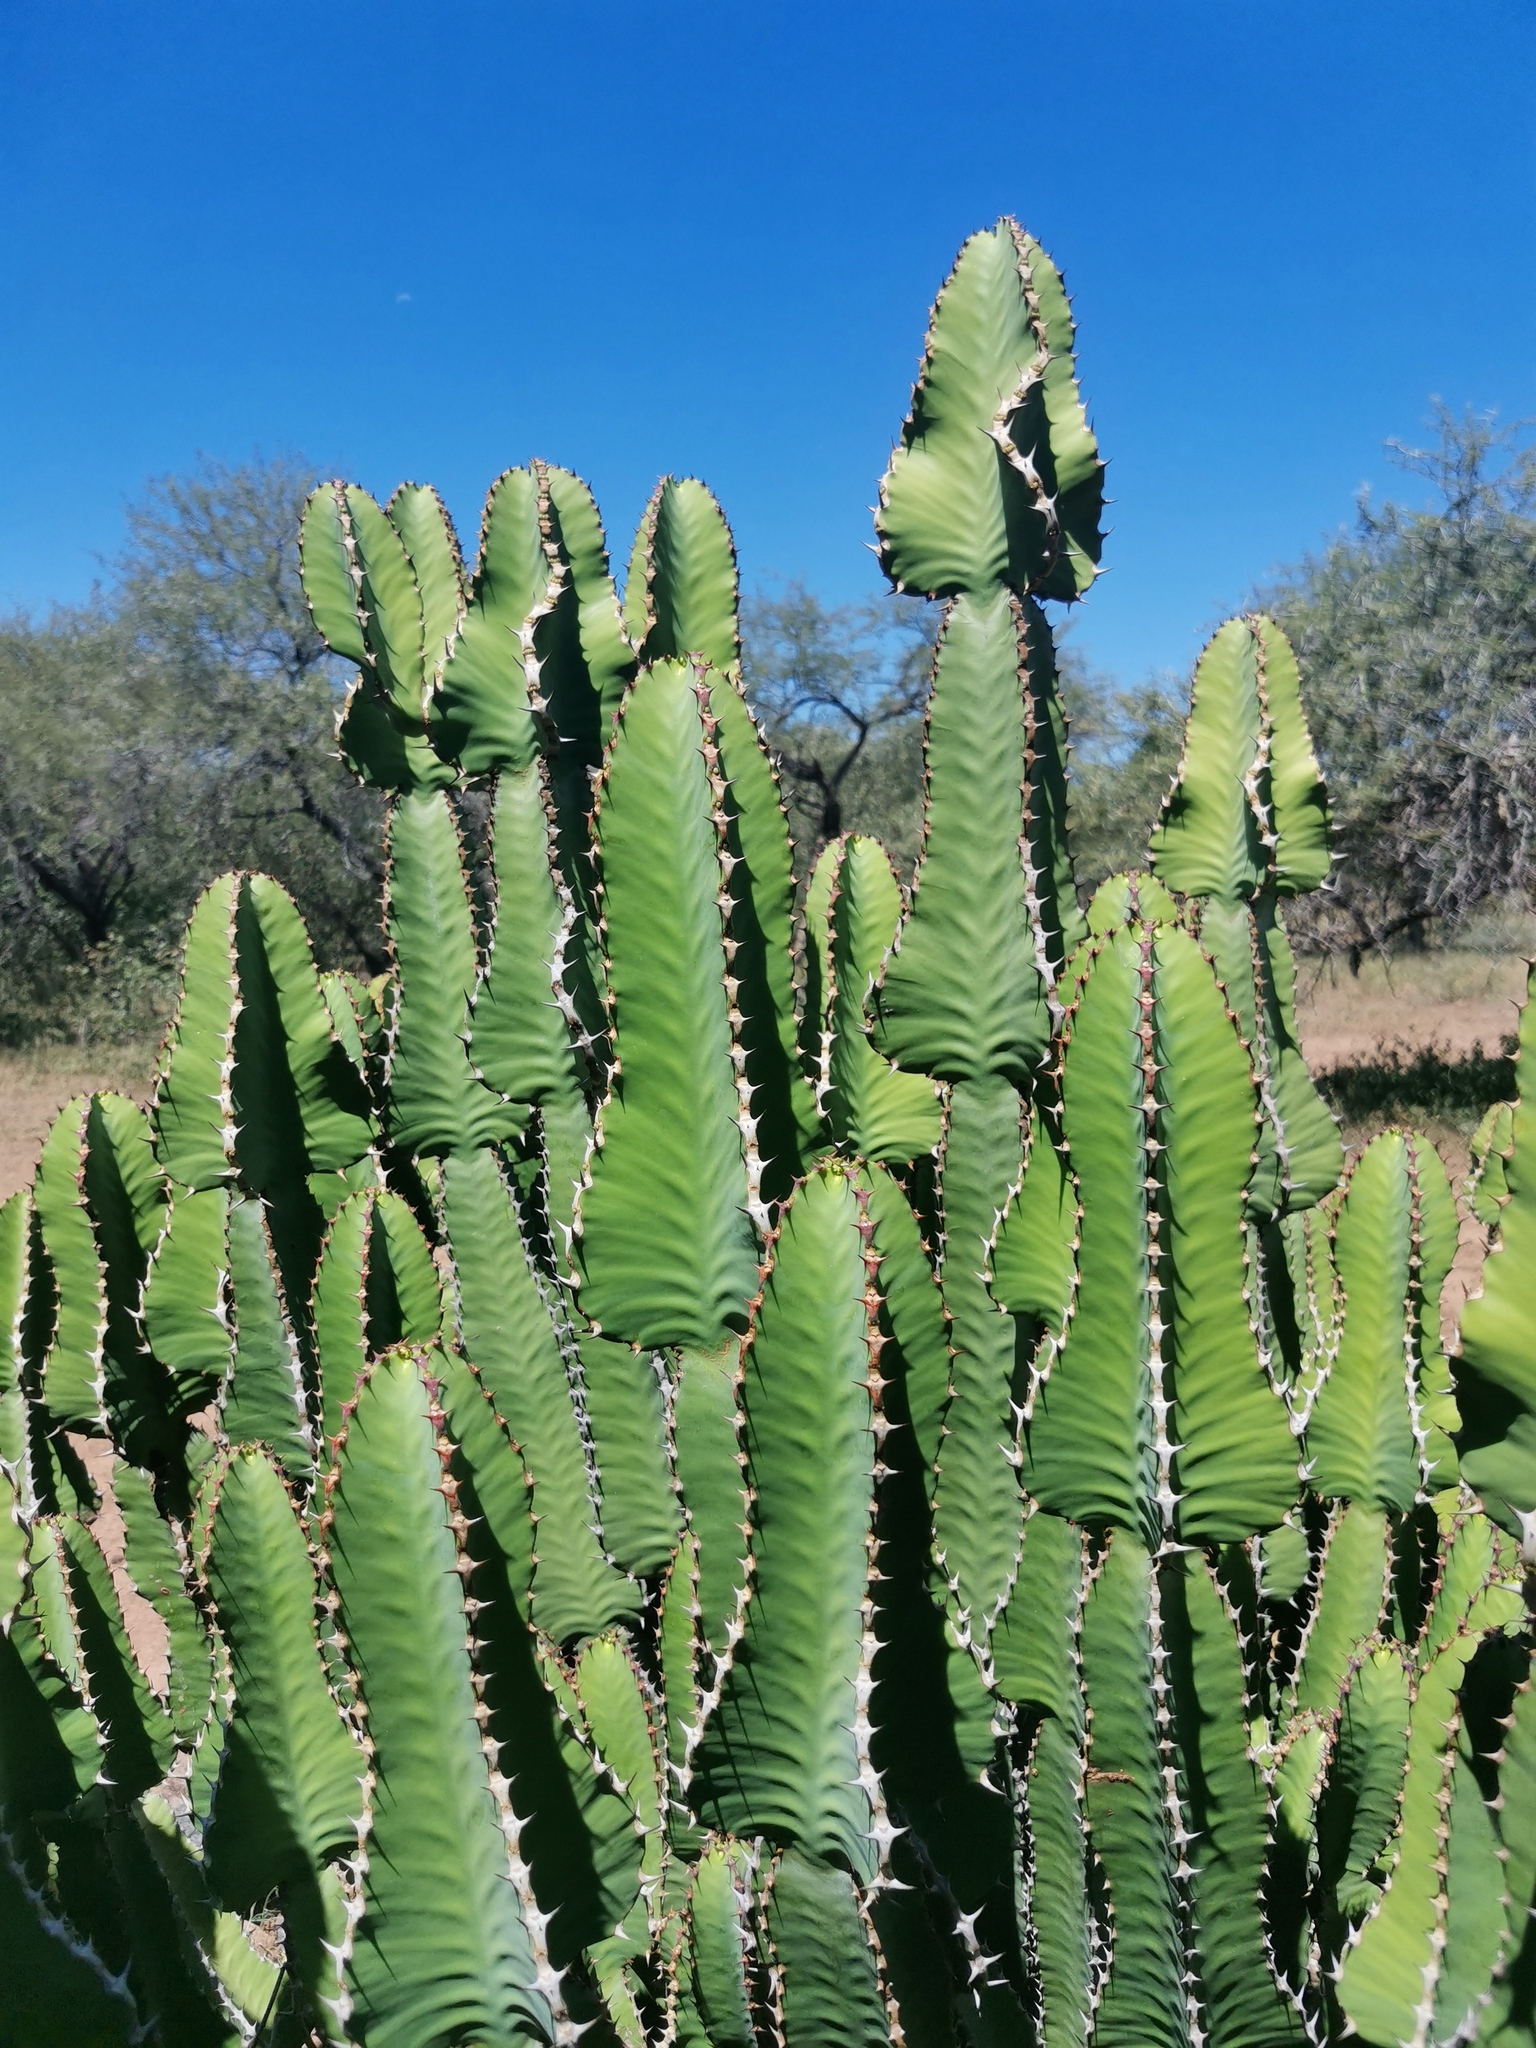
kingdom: Plantae
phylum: Tracheophyta
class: Magnoliopsida
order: Malpighiales
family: Euphorbiaceae
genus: Euphorbia
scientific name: Euphorbia cooperi
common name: Candelabra tree
